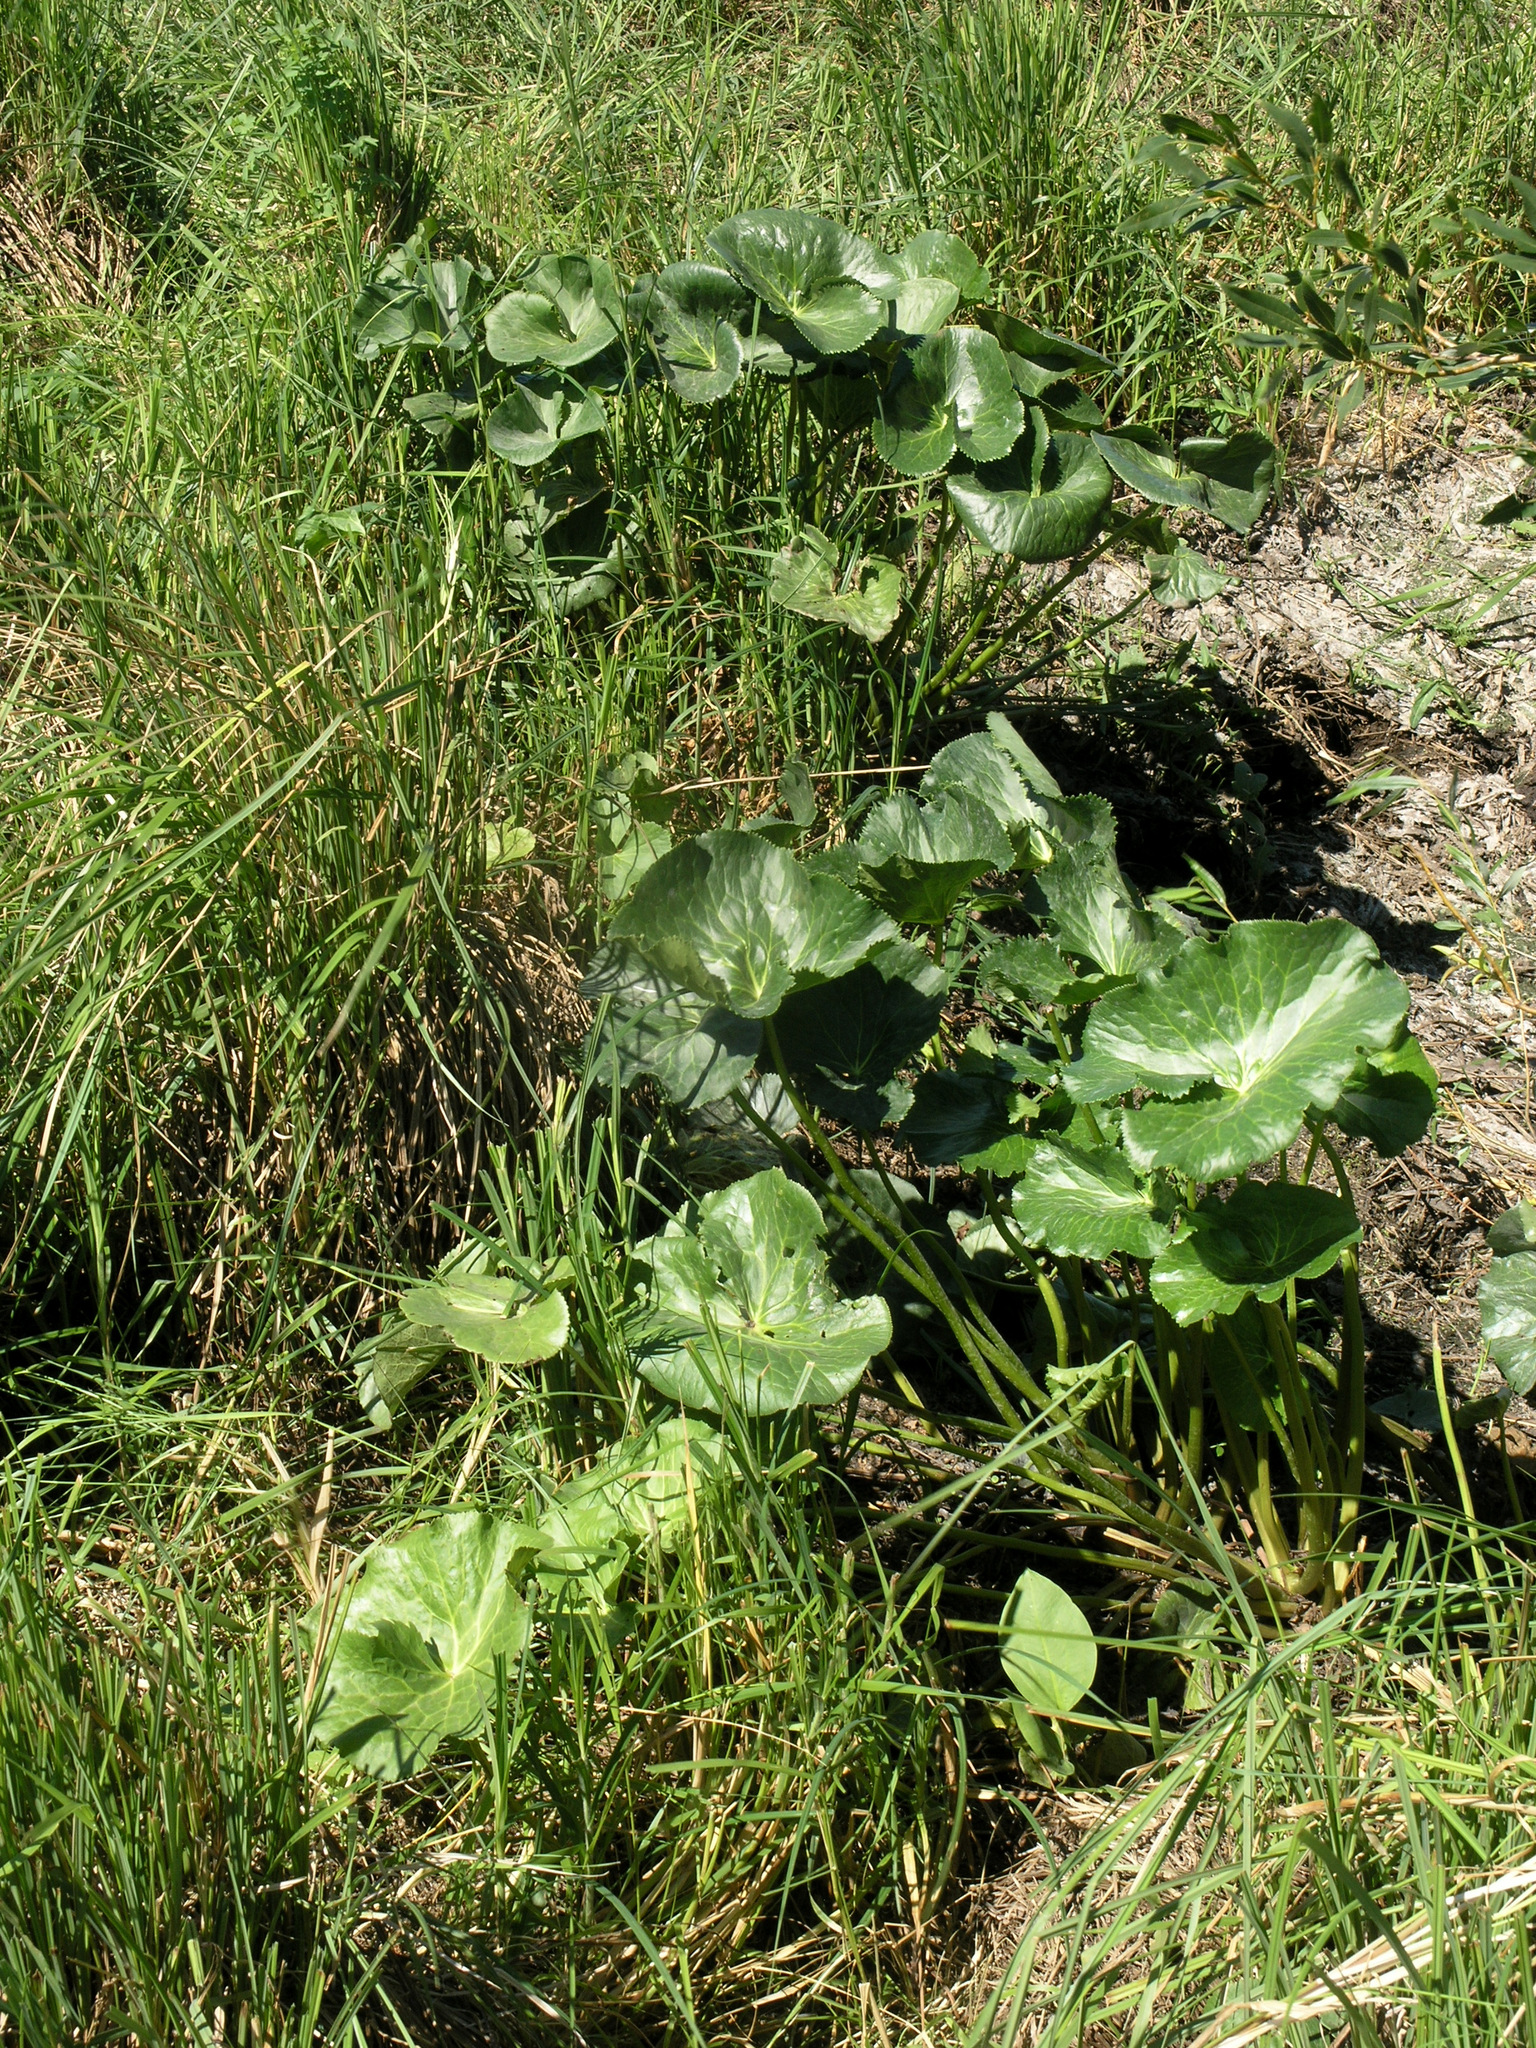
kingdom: Plantae
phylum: Tracheophyta
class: Magnoliopsida
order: Ranunculales
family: Ranunculaceae
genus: Caltha
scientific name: Caltha palustris
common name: Marsh marigold
